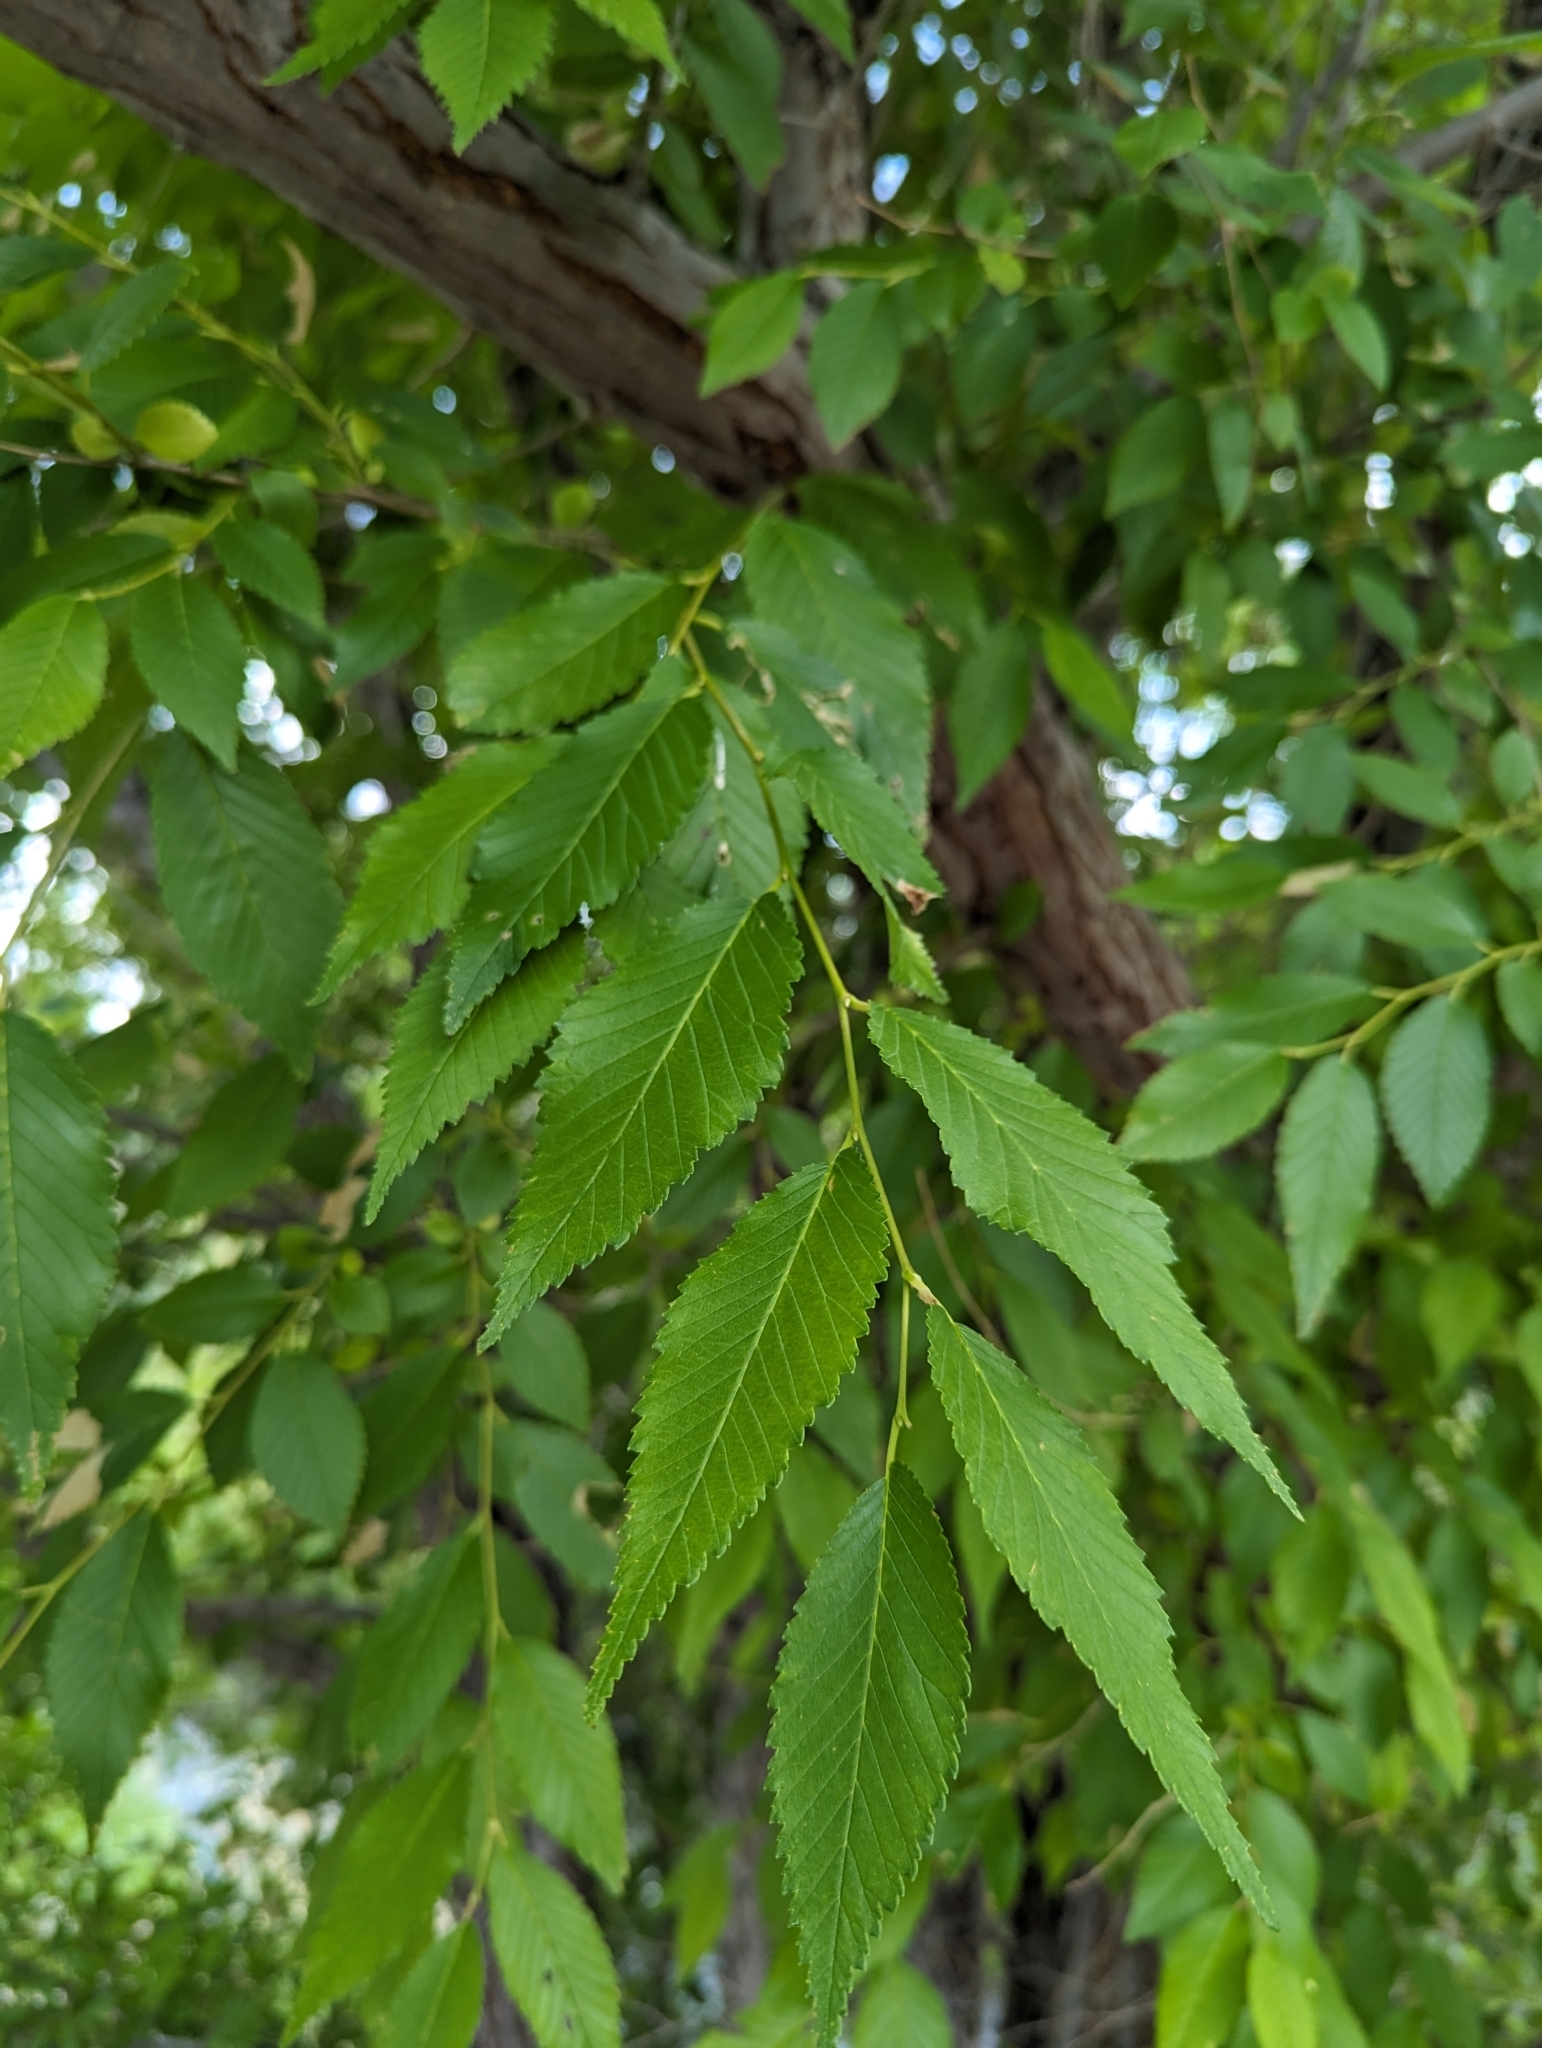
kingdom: Plantae
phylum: Tracheophyta
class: Magnoliopsida
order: Rosales
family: Ulmaceae
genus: Ulmus
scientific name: Ulmus pumila
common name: Siberian elm
